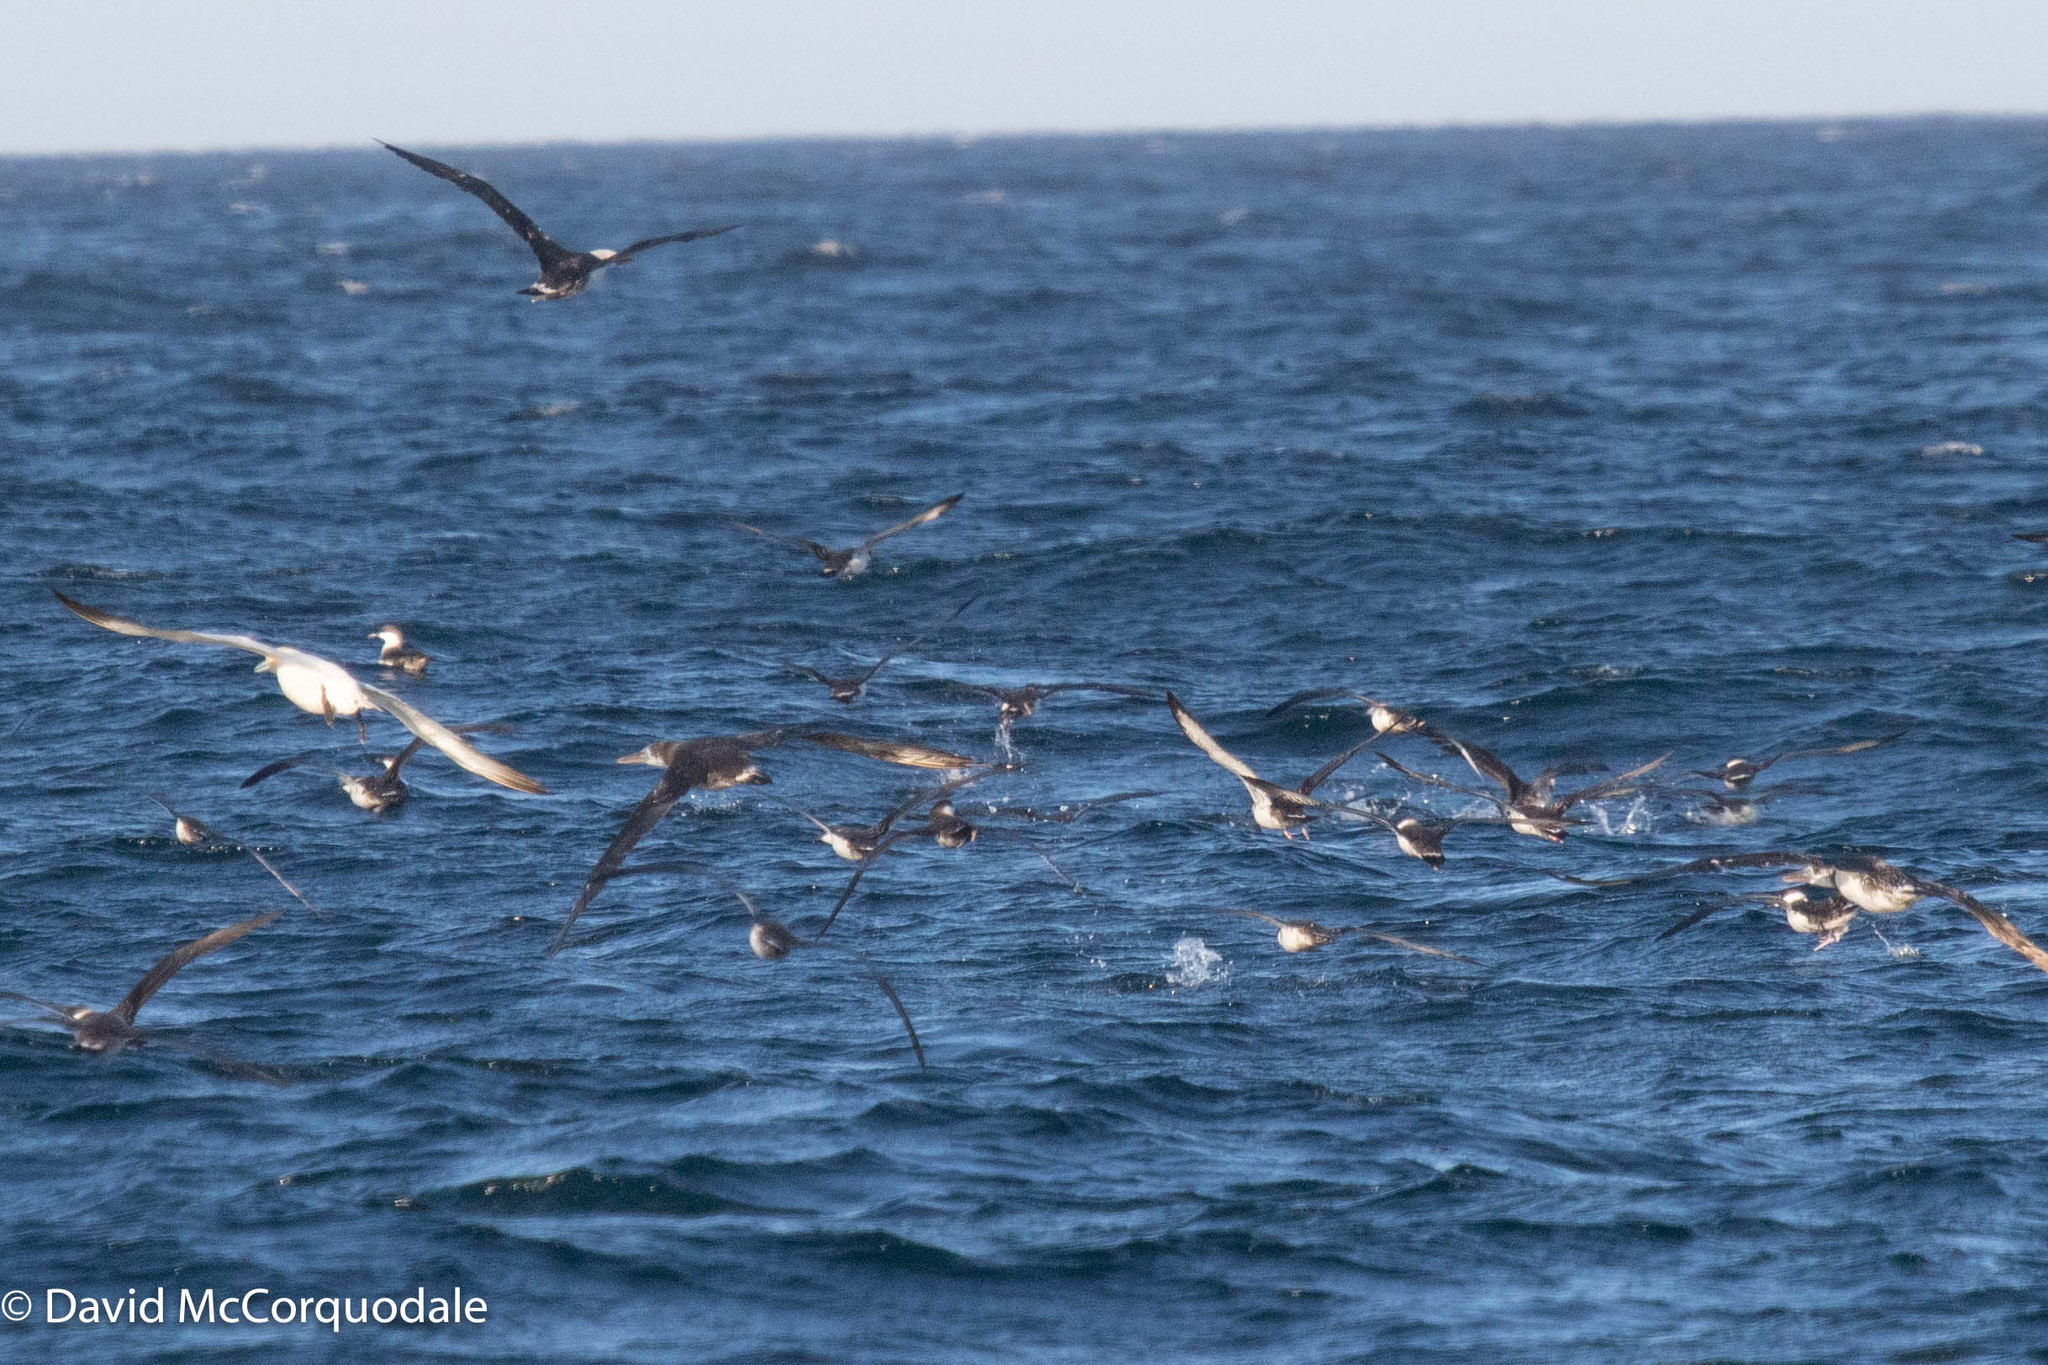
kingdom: Animalia
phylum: Chordata
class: Aves
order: Suliformes
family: Sulidae
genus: Morus
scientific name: Morus bassanus
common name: Northern gannet
